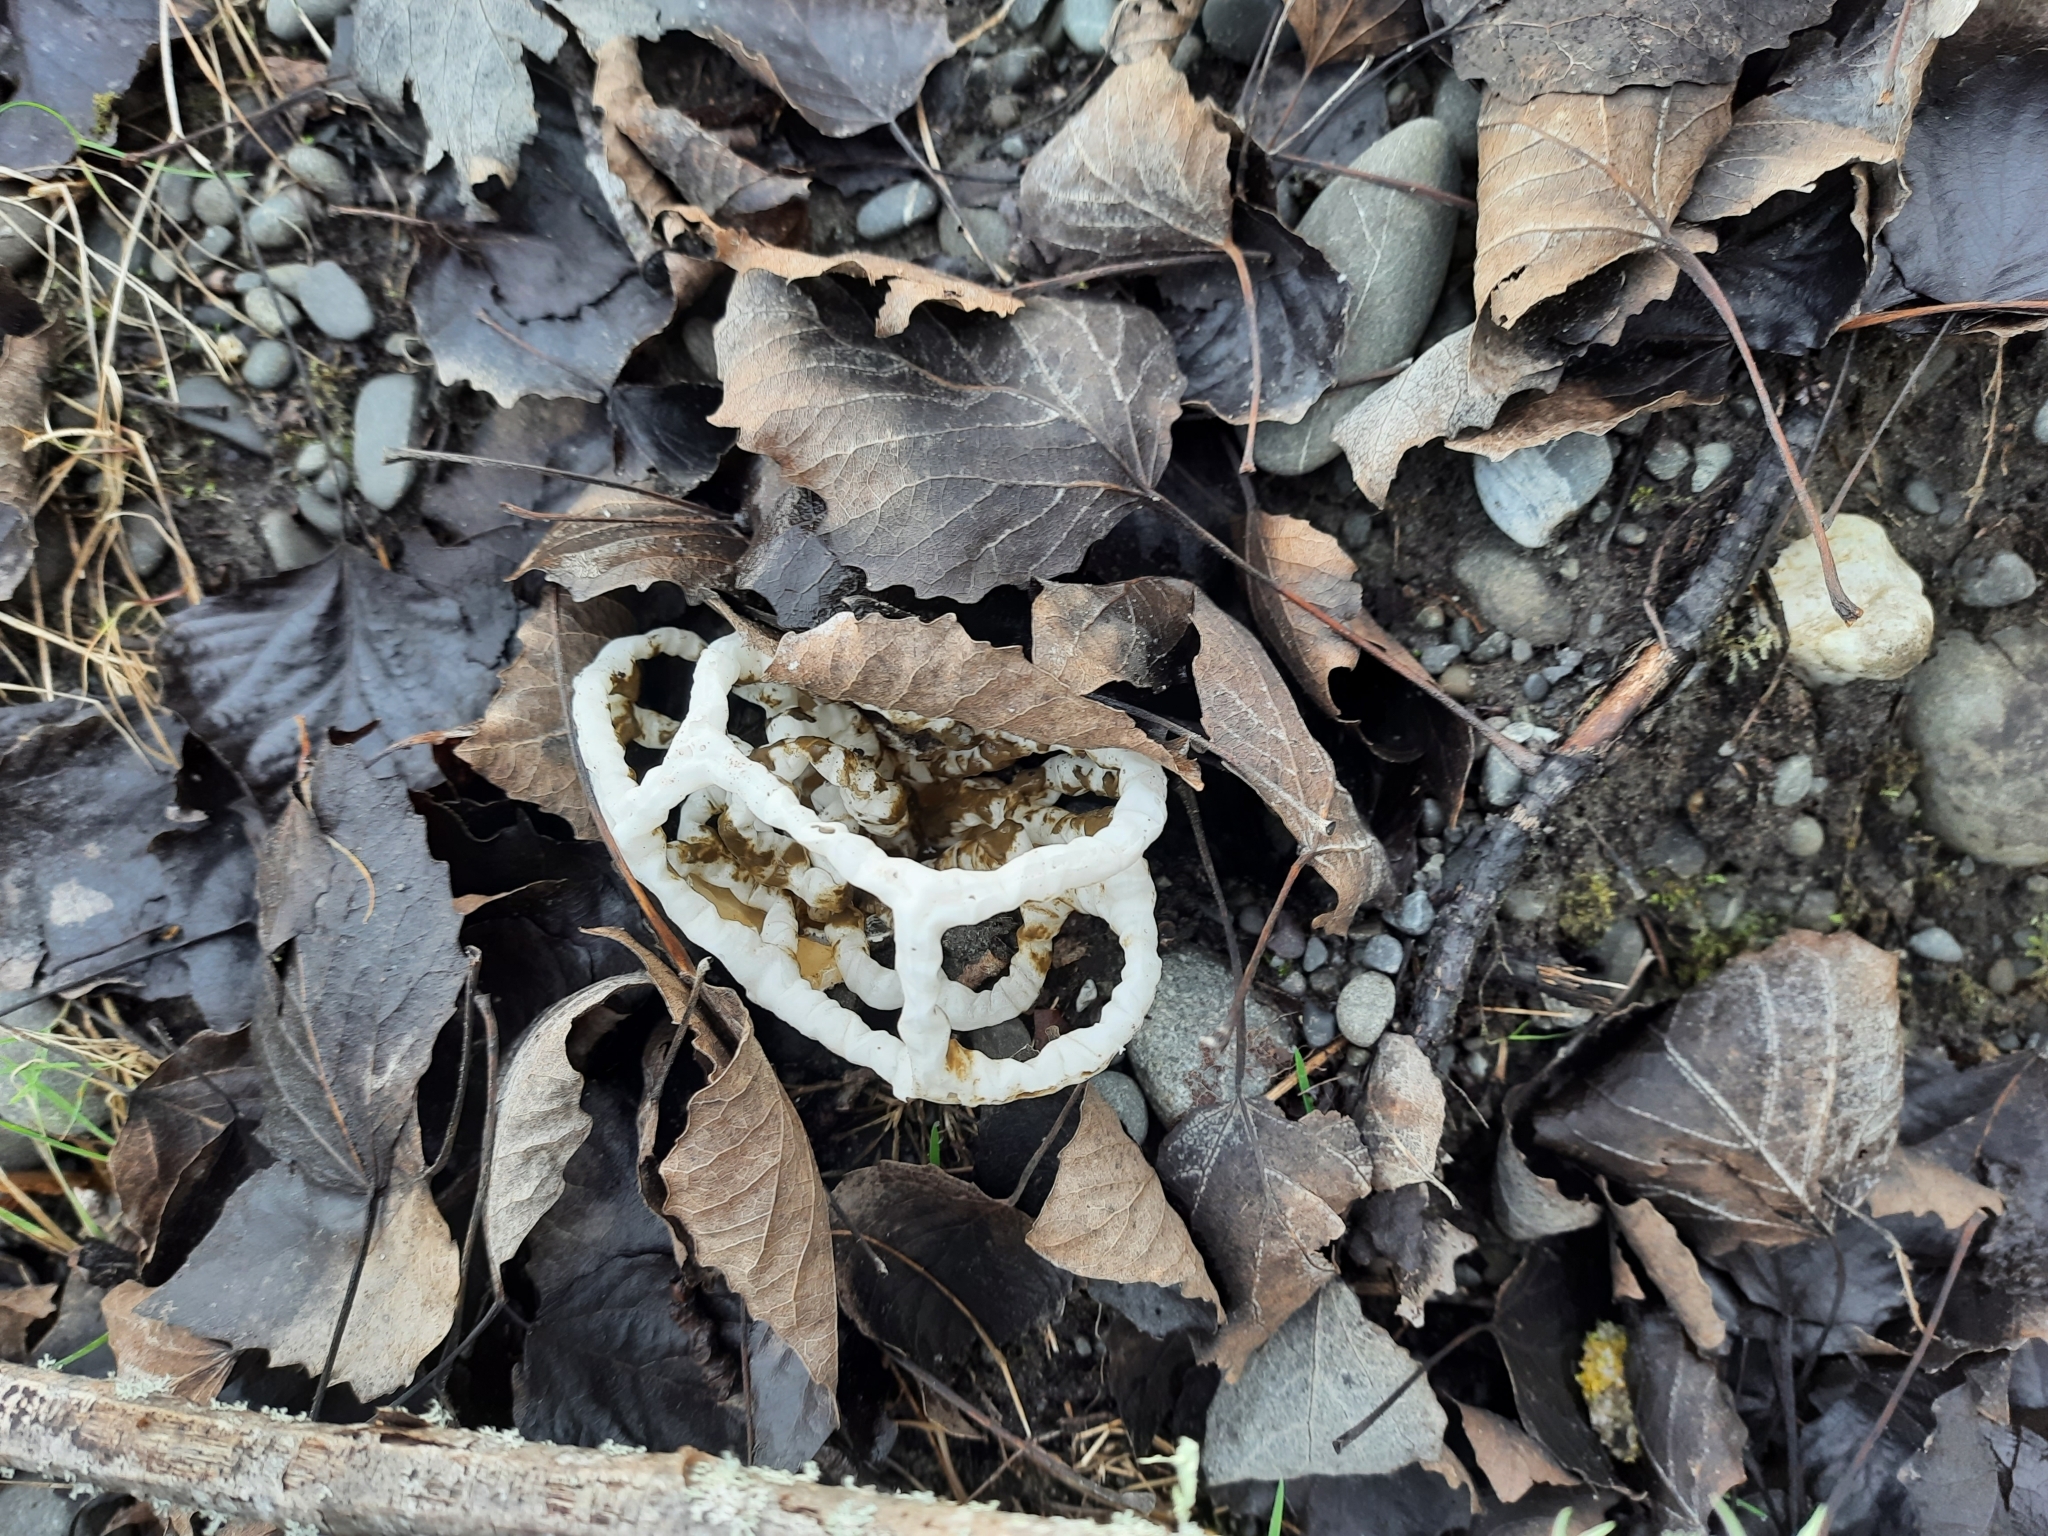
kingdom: Fungi
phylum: Basidiomycota
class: Agaricomycetes
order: Phallales
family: Phallaceae
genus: Ileodictyon
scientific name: Ileodictyon cibarium
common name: Basket fungus
